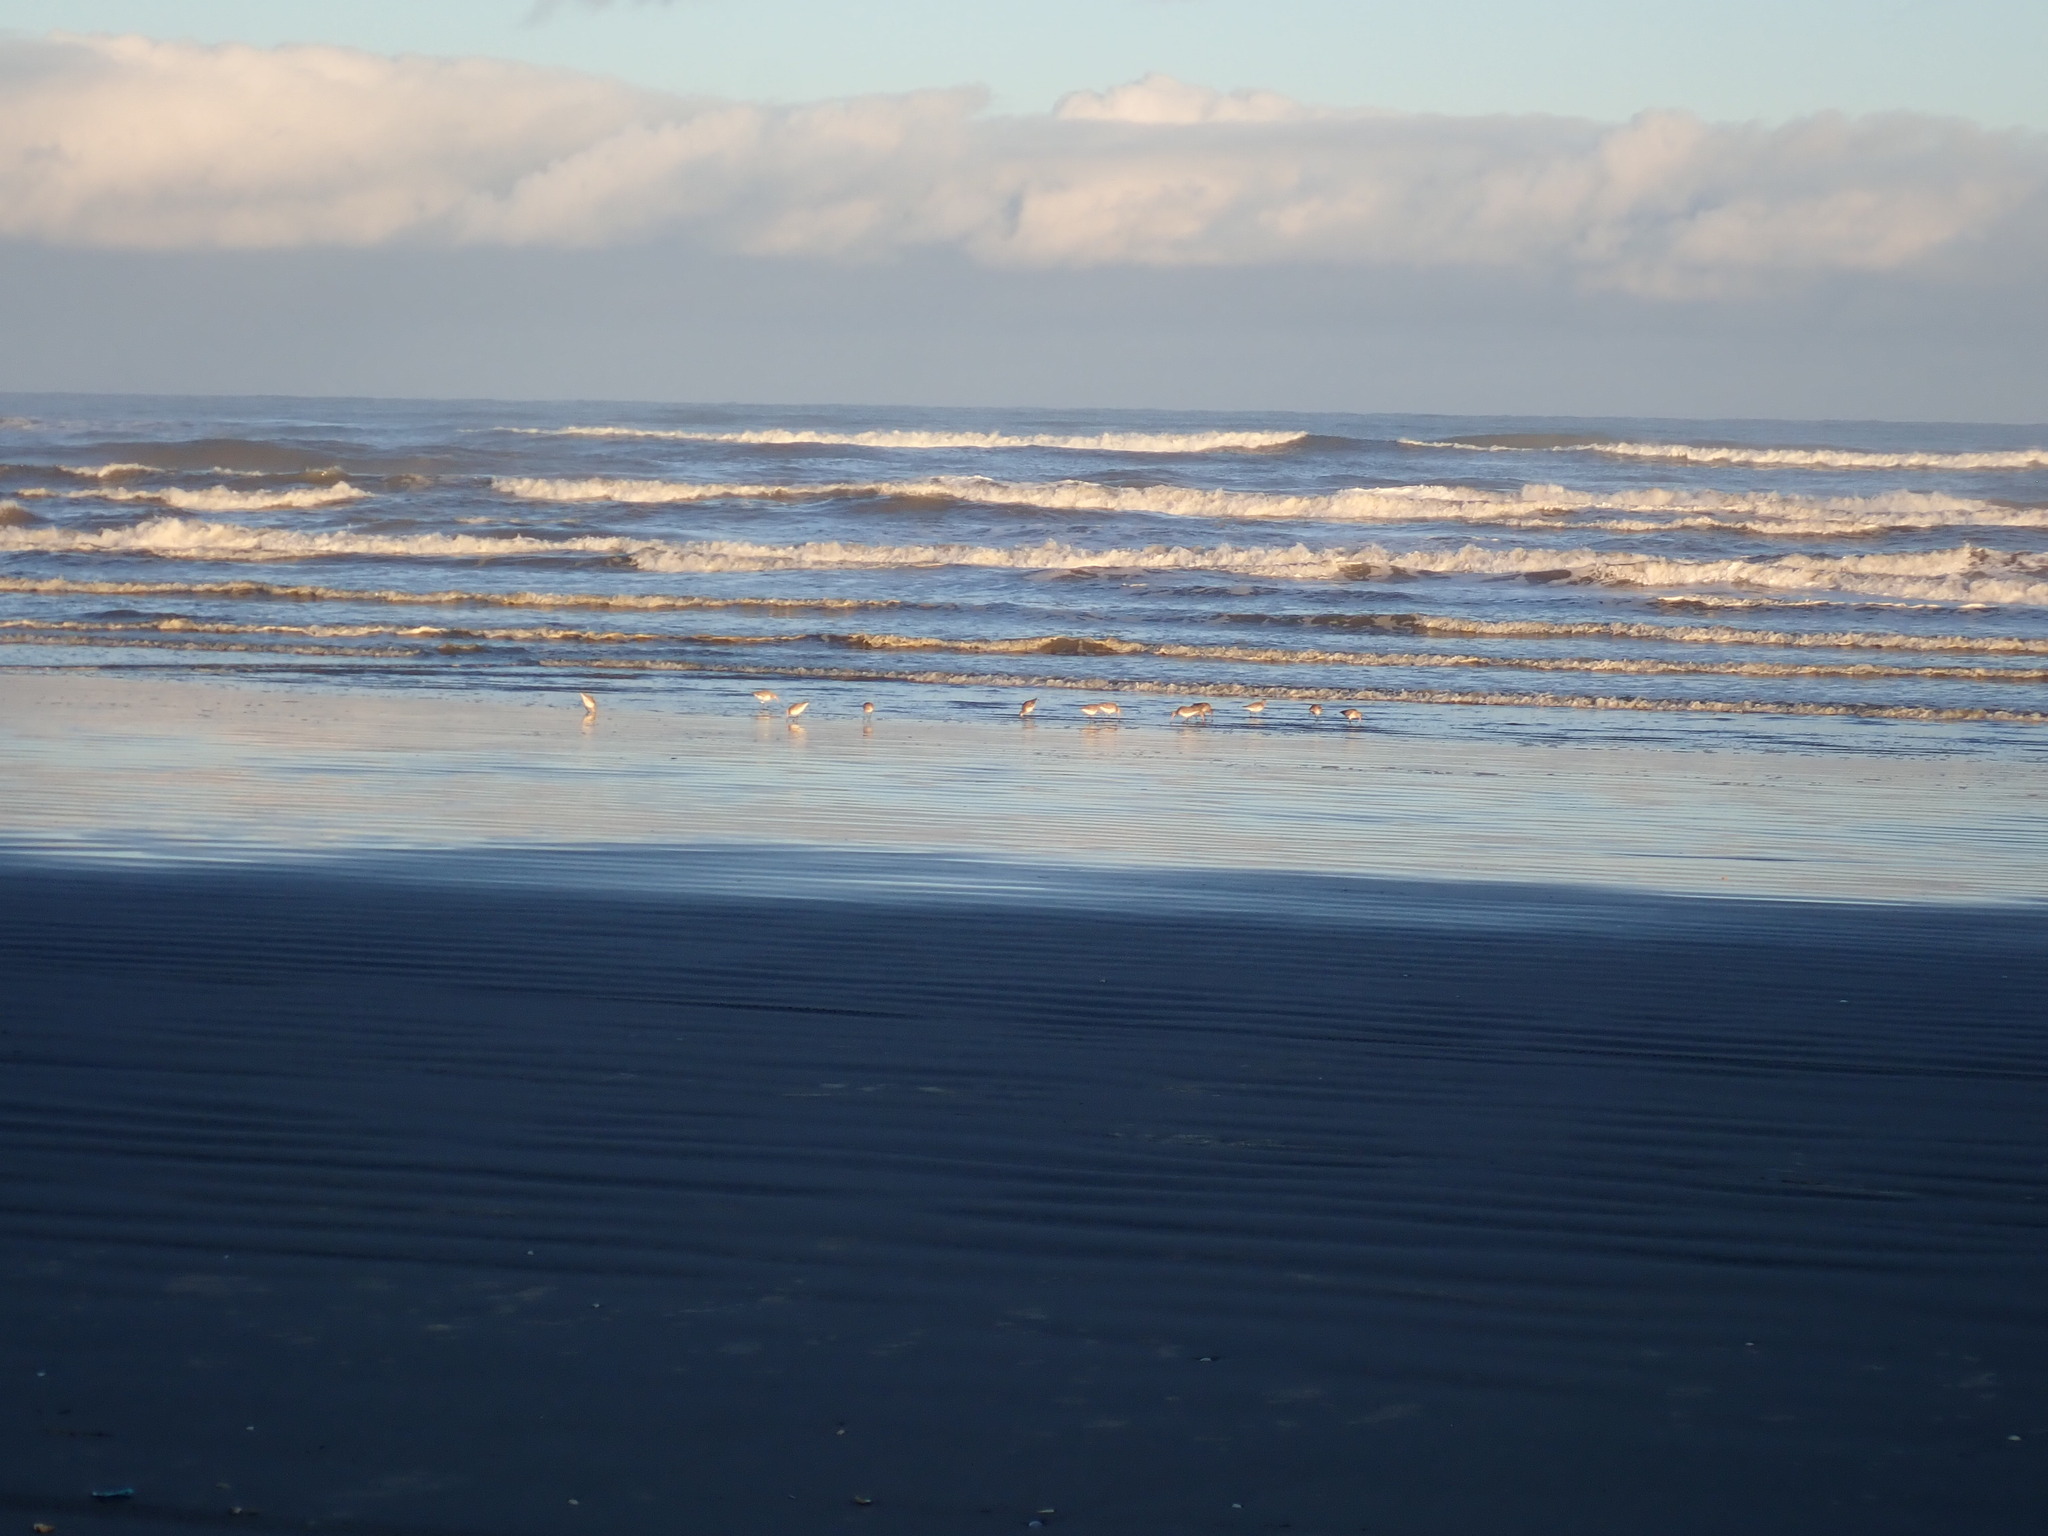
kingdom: Animalia
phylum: Chordata
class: Aves
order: Charadriiformes
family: Scolopacidae
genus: Limosa
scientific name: Limosa lapponica
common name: Bar-tailed godwit
